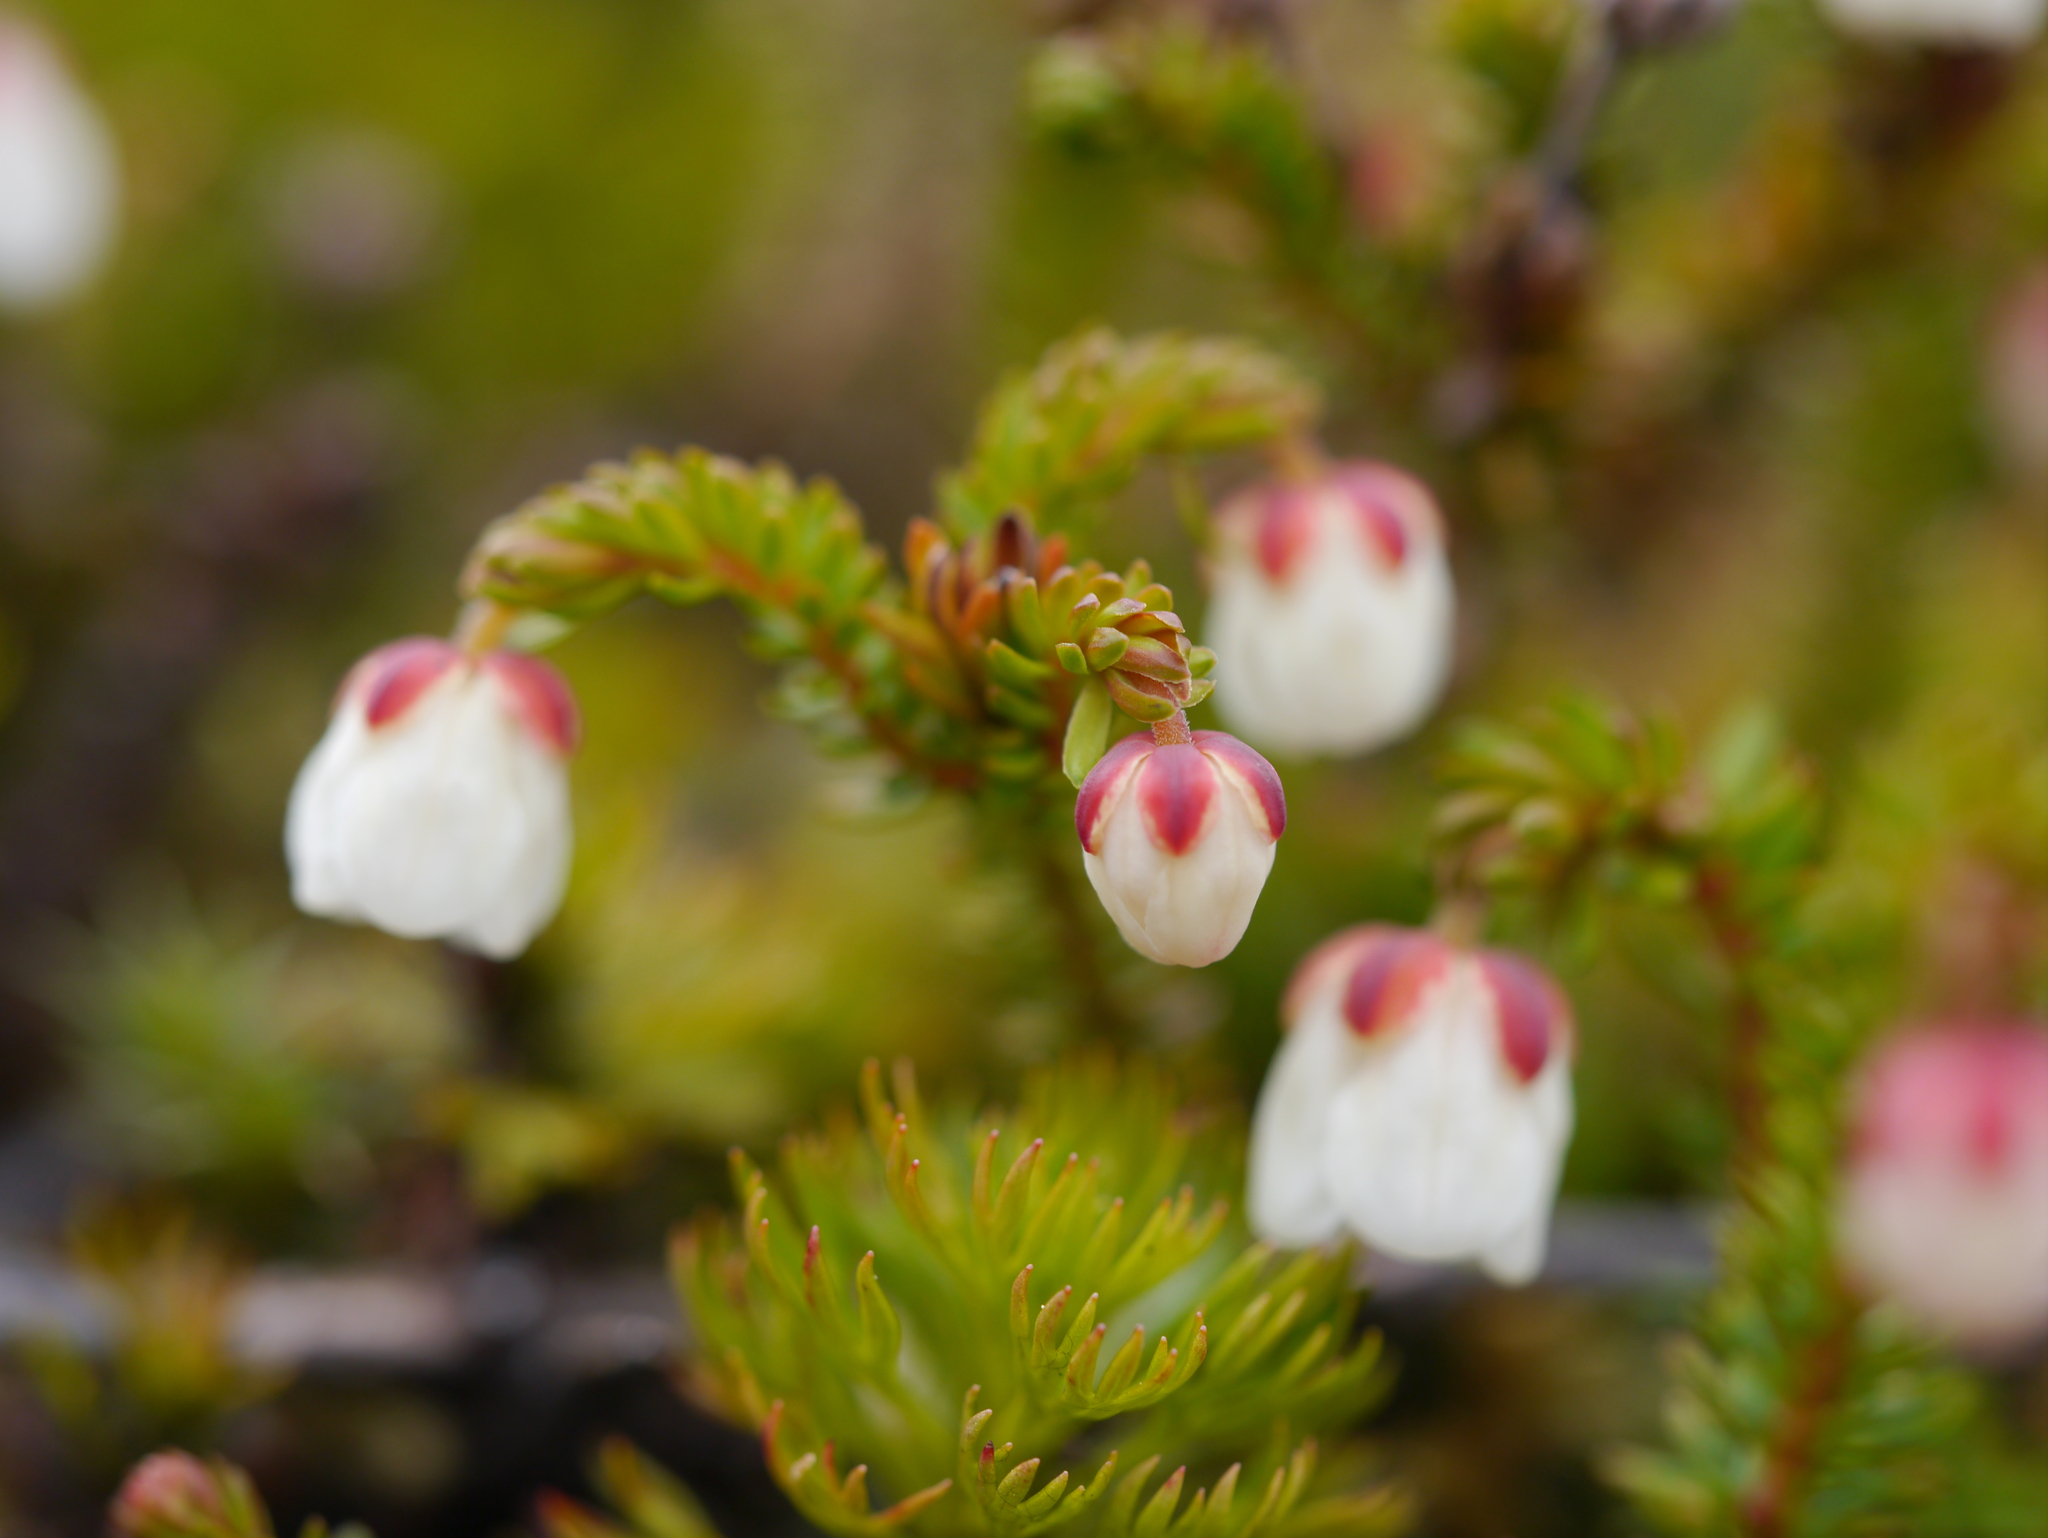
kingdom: Plantae
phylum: Tracheophyta
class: Magnoliopsida
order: Ericales
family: Ericaceae
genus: Harrimanella
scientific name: Harrimanella stelleriana
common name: Alaska bell heather
